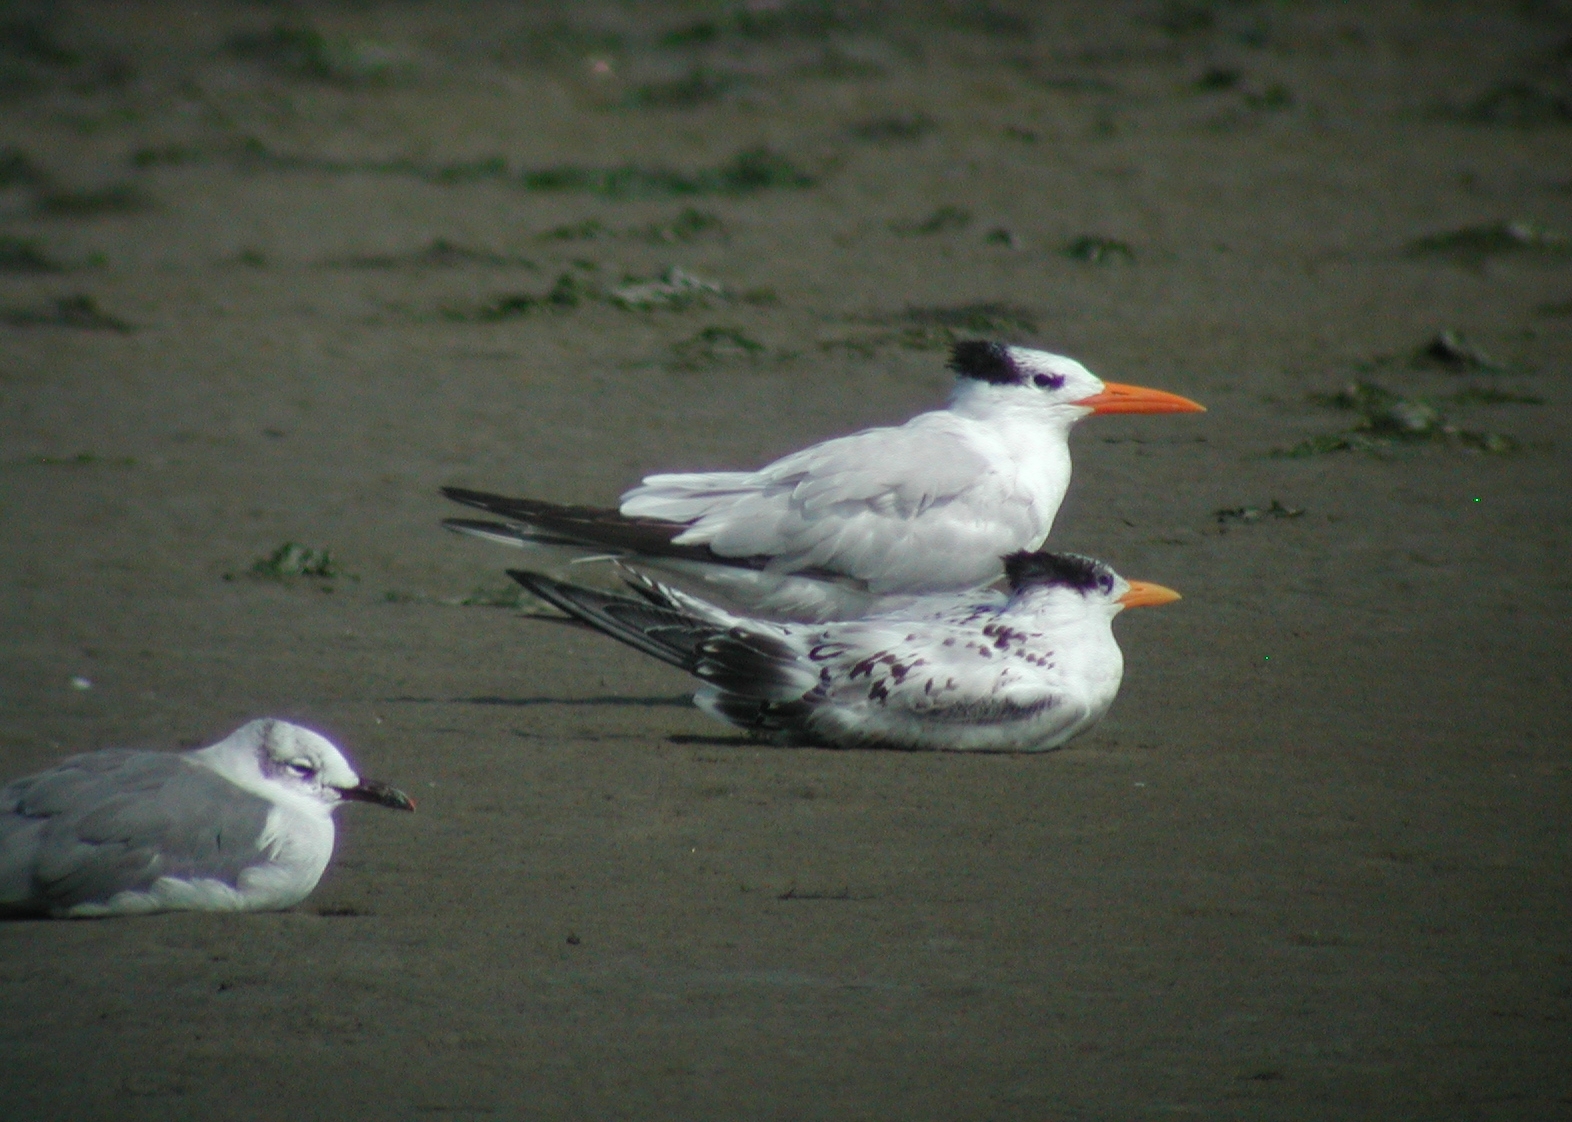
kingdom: Animalia
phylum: Chordata
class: Aves
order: Charadriiformes
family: Laridae
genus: Thalasseus
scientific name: Thalasseus maximus
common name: Royal tern
